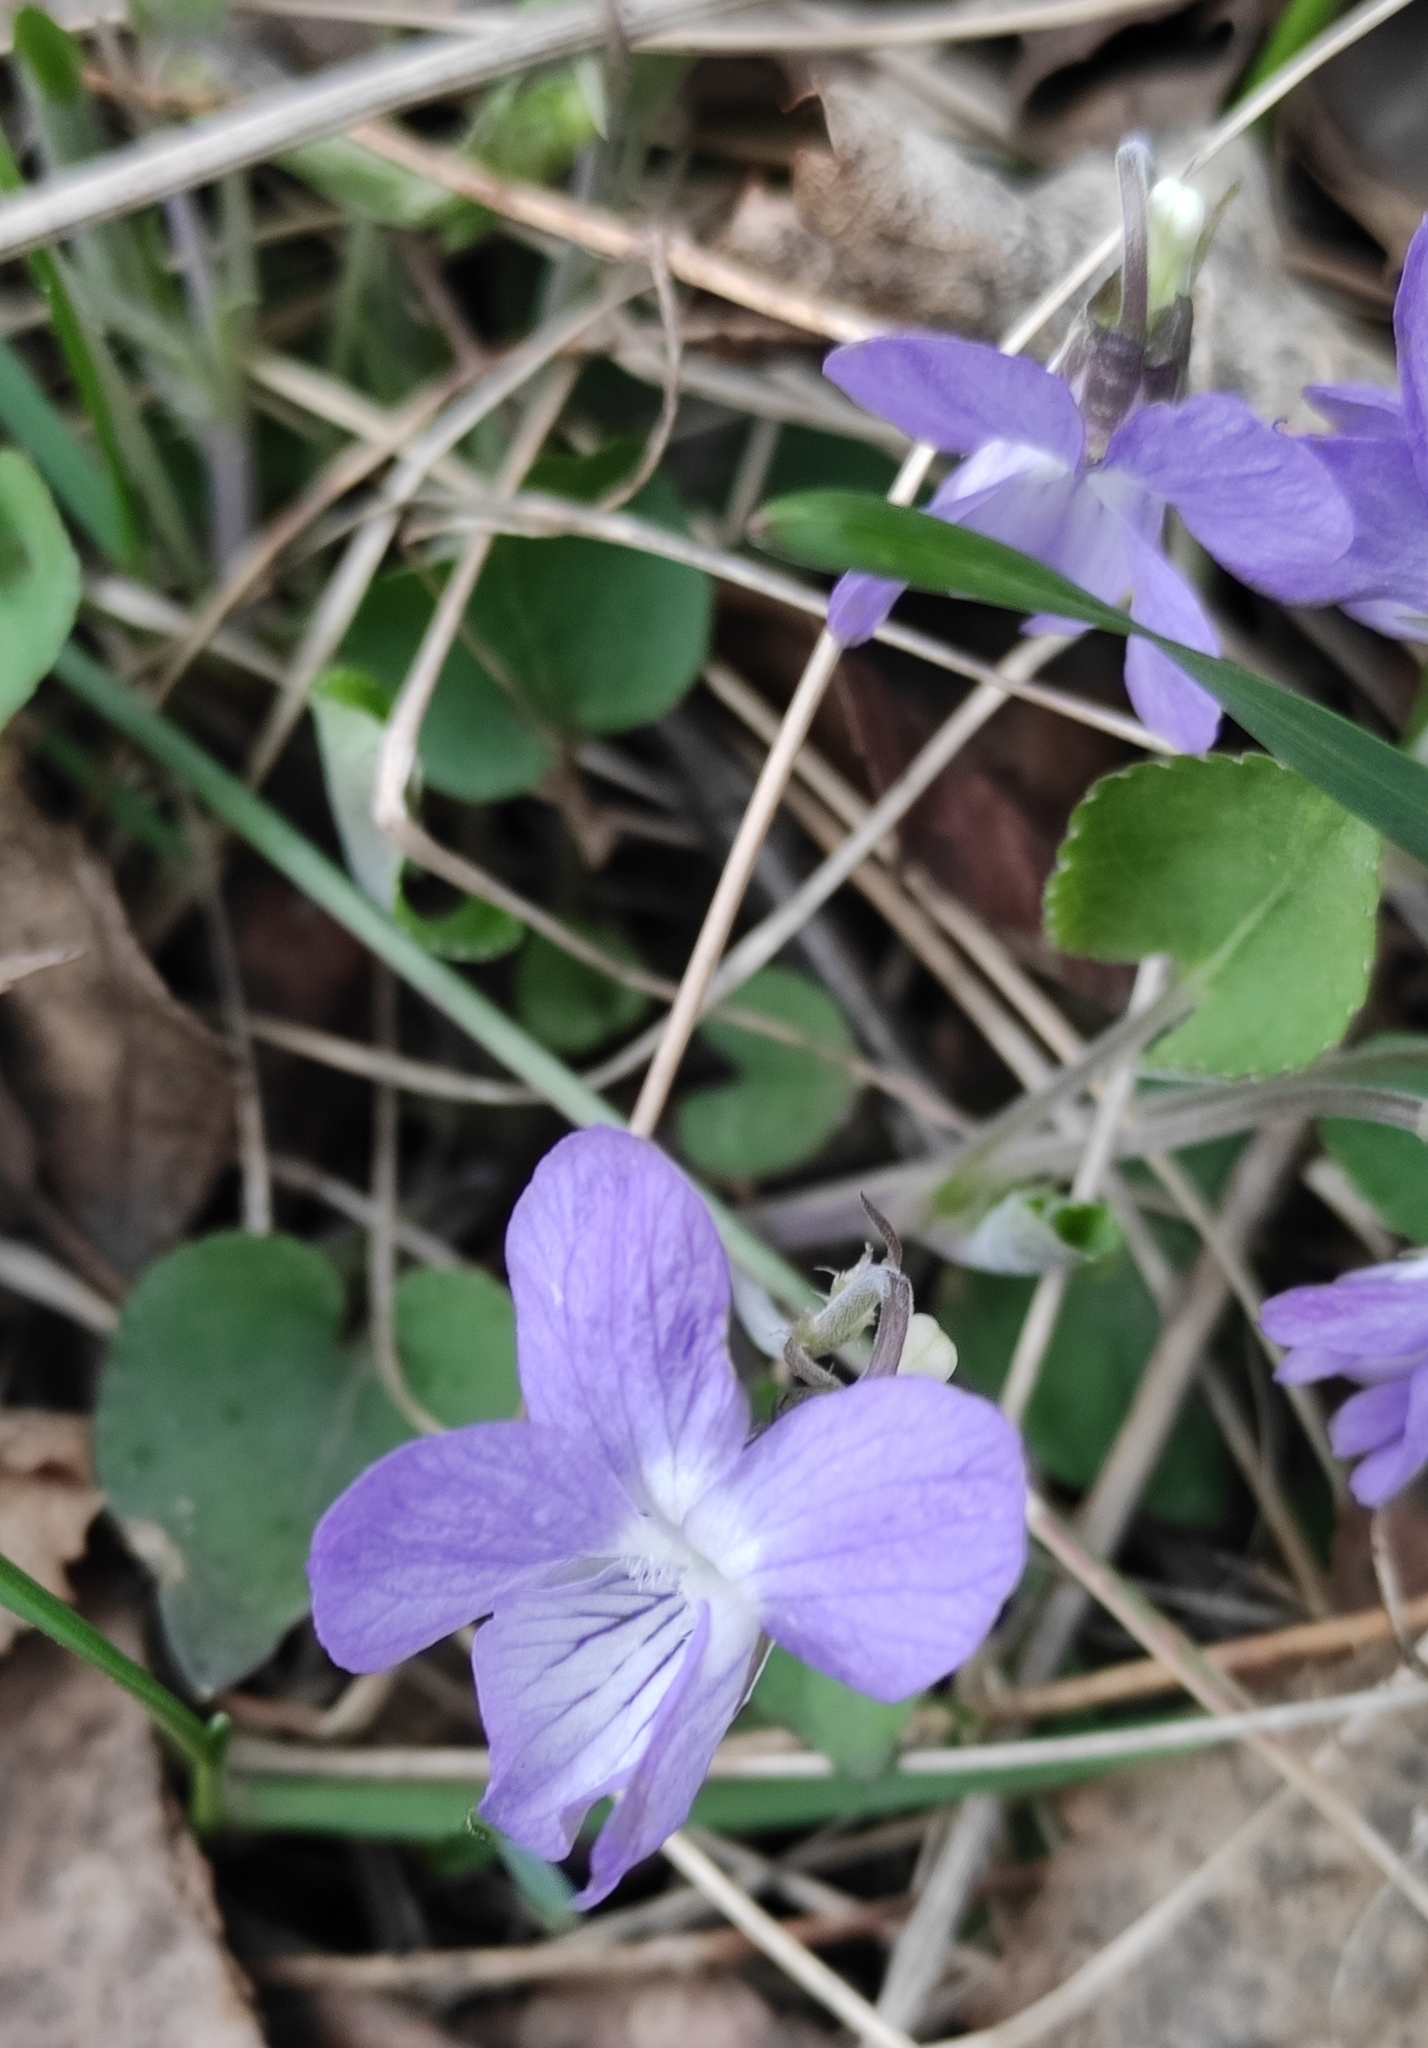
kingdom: Plantae
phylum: Tracheophyta
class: Magnoliopsida
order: Malpighiales
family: Violaceae
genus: Viola
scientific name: Viola rupestris
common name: Teesdale violet
